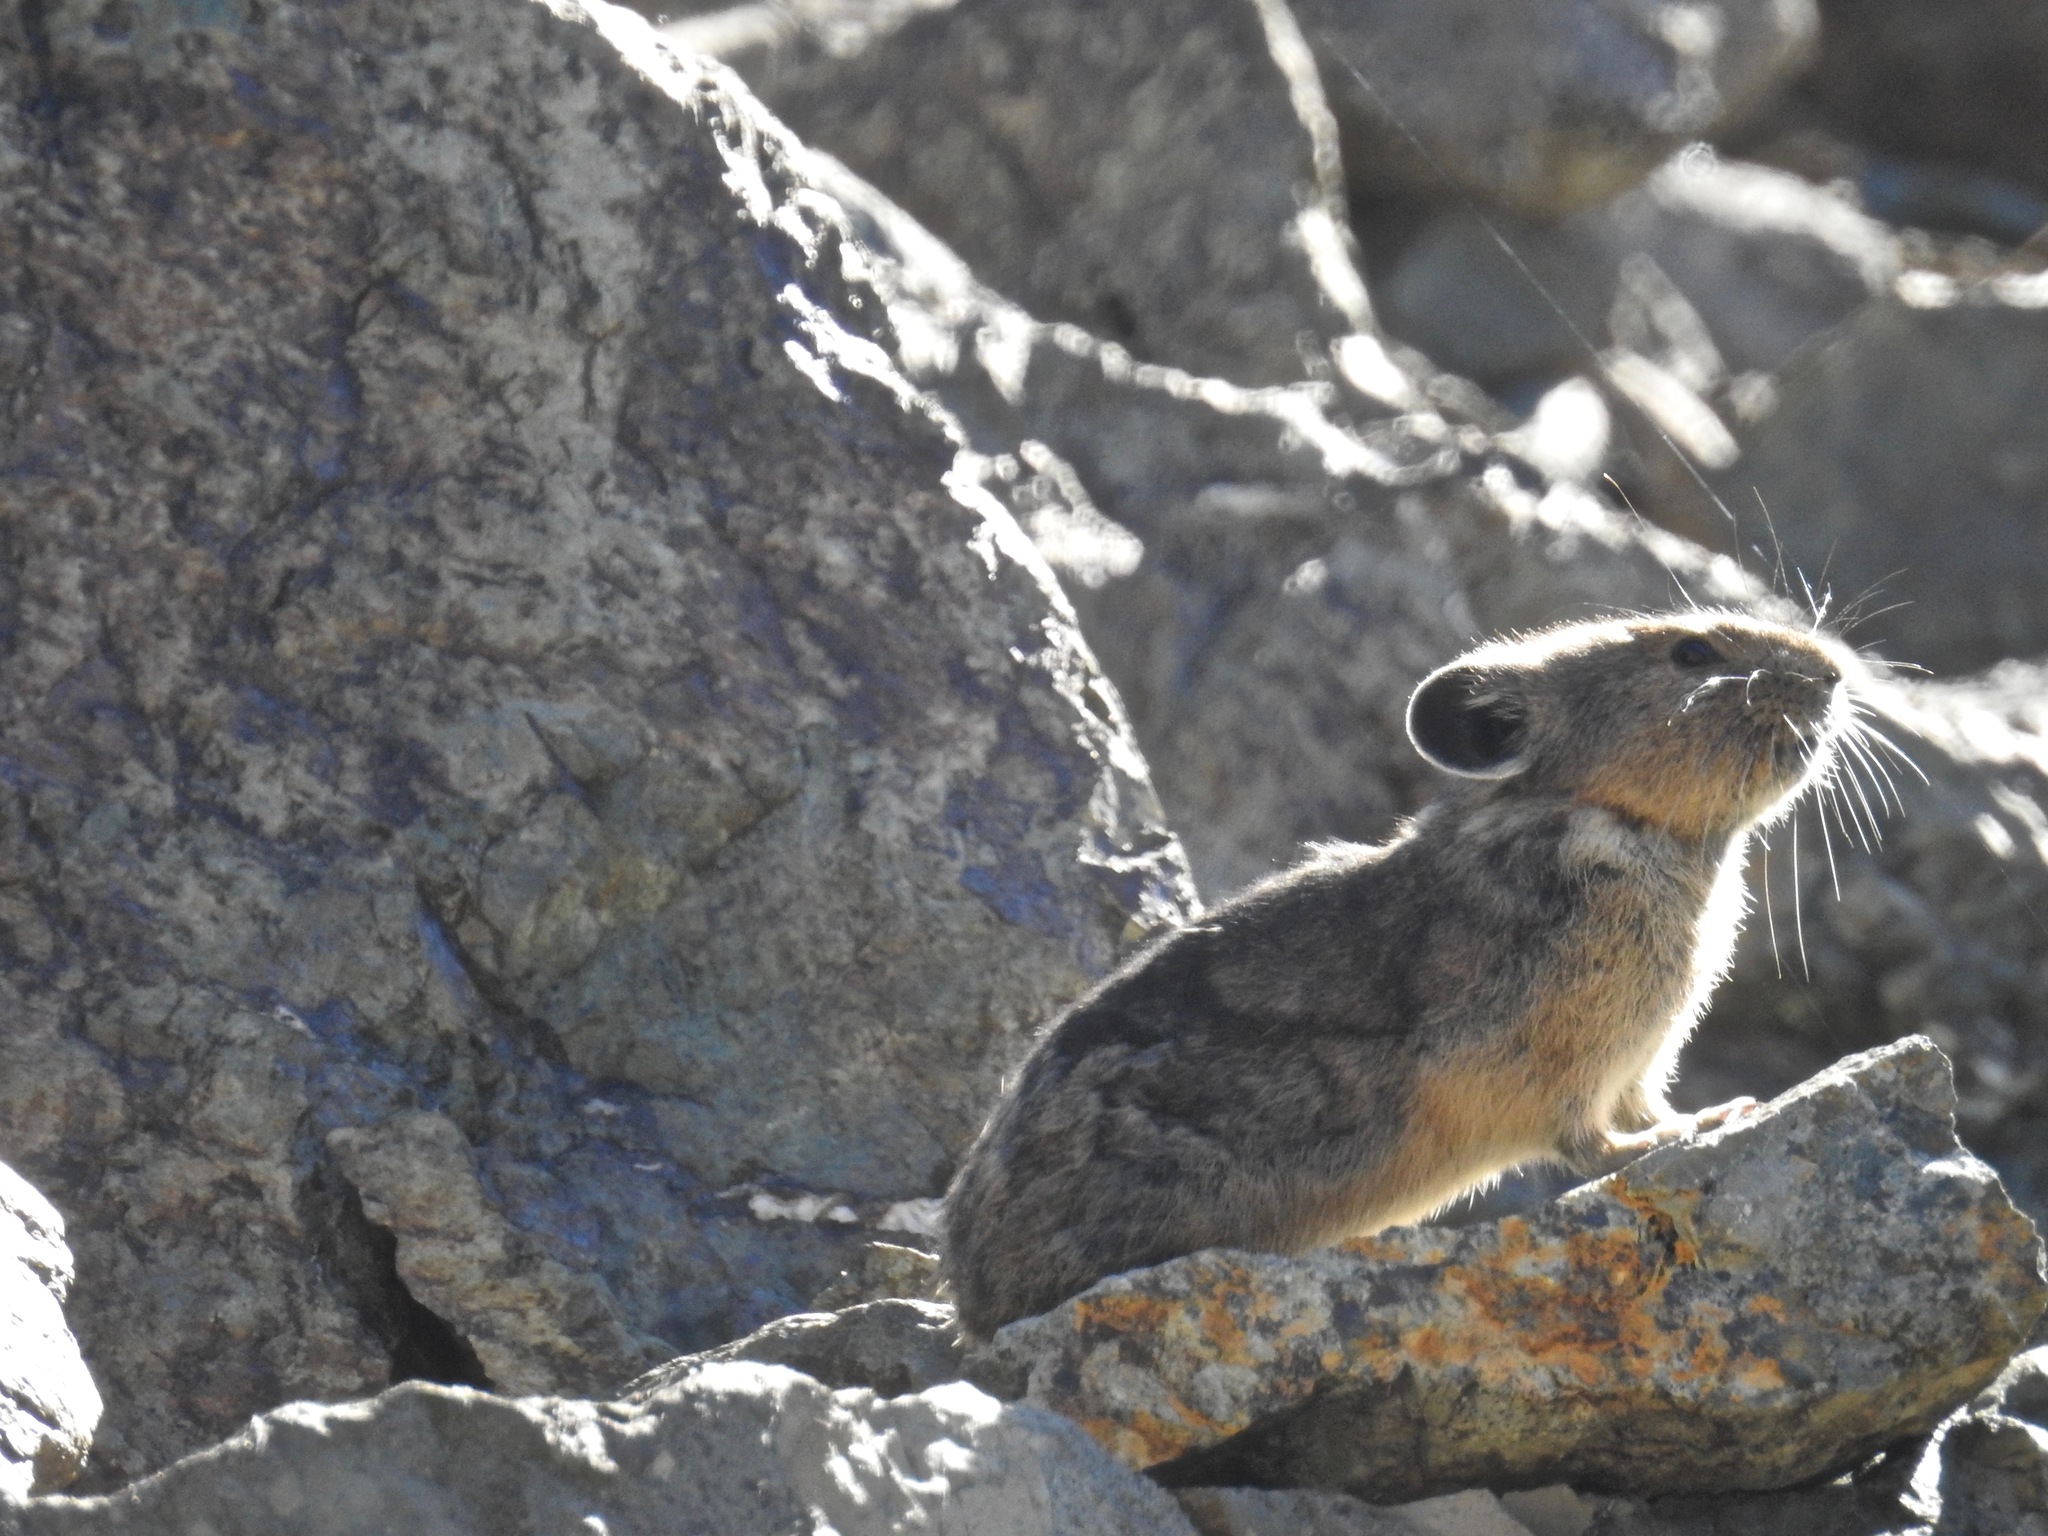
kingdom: Animalia
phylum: Chordata
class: Mammalia
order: Lagomorpha
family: Ochotonidae
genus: Ochotona
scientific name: Ochotona princeps
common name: American pika
